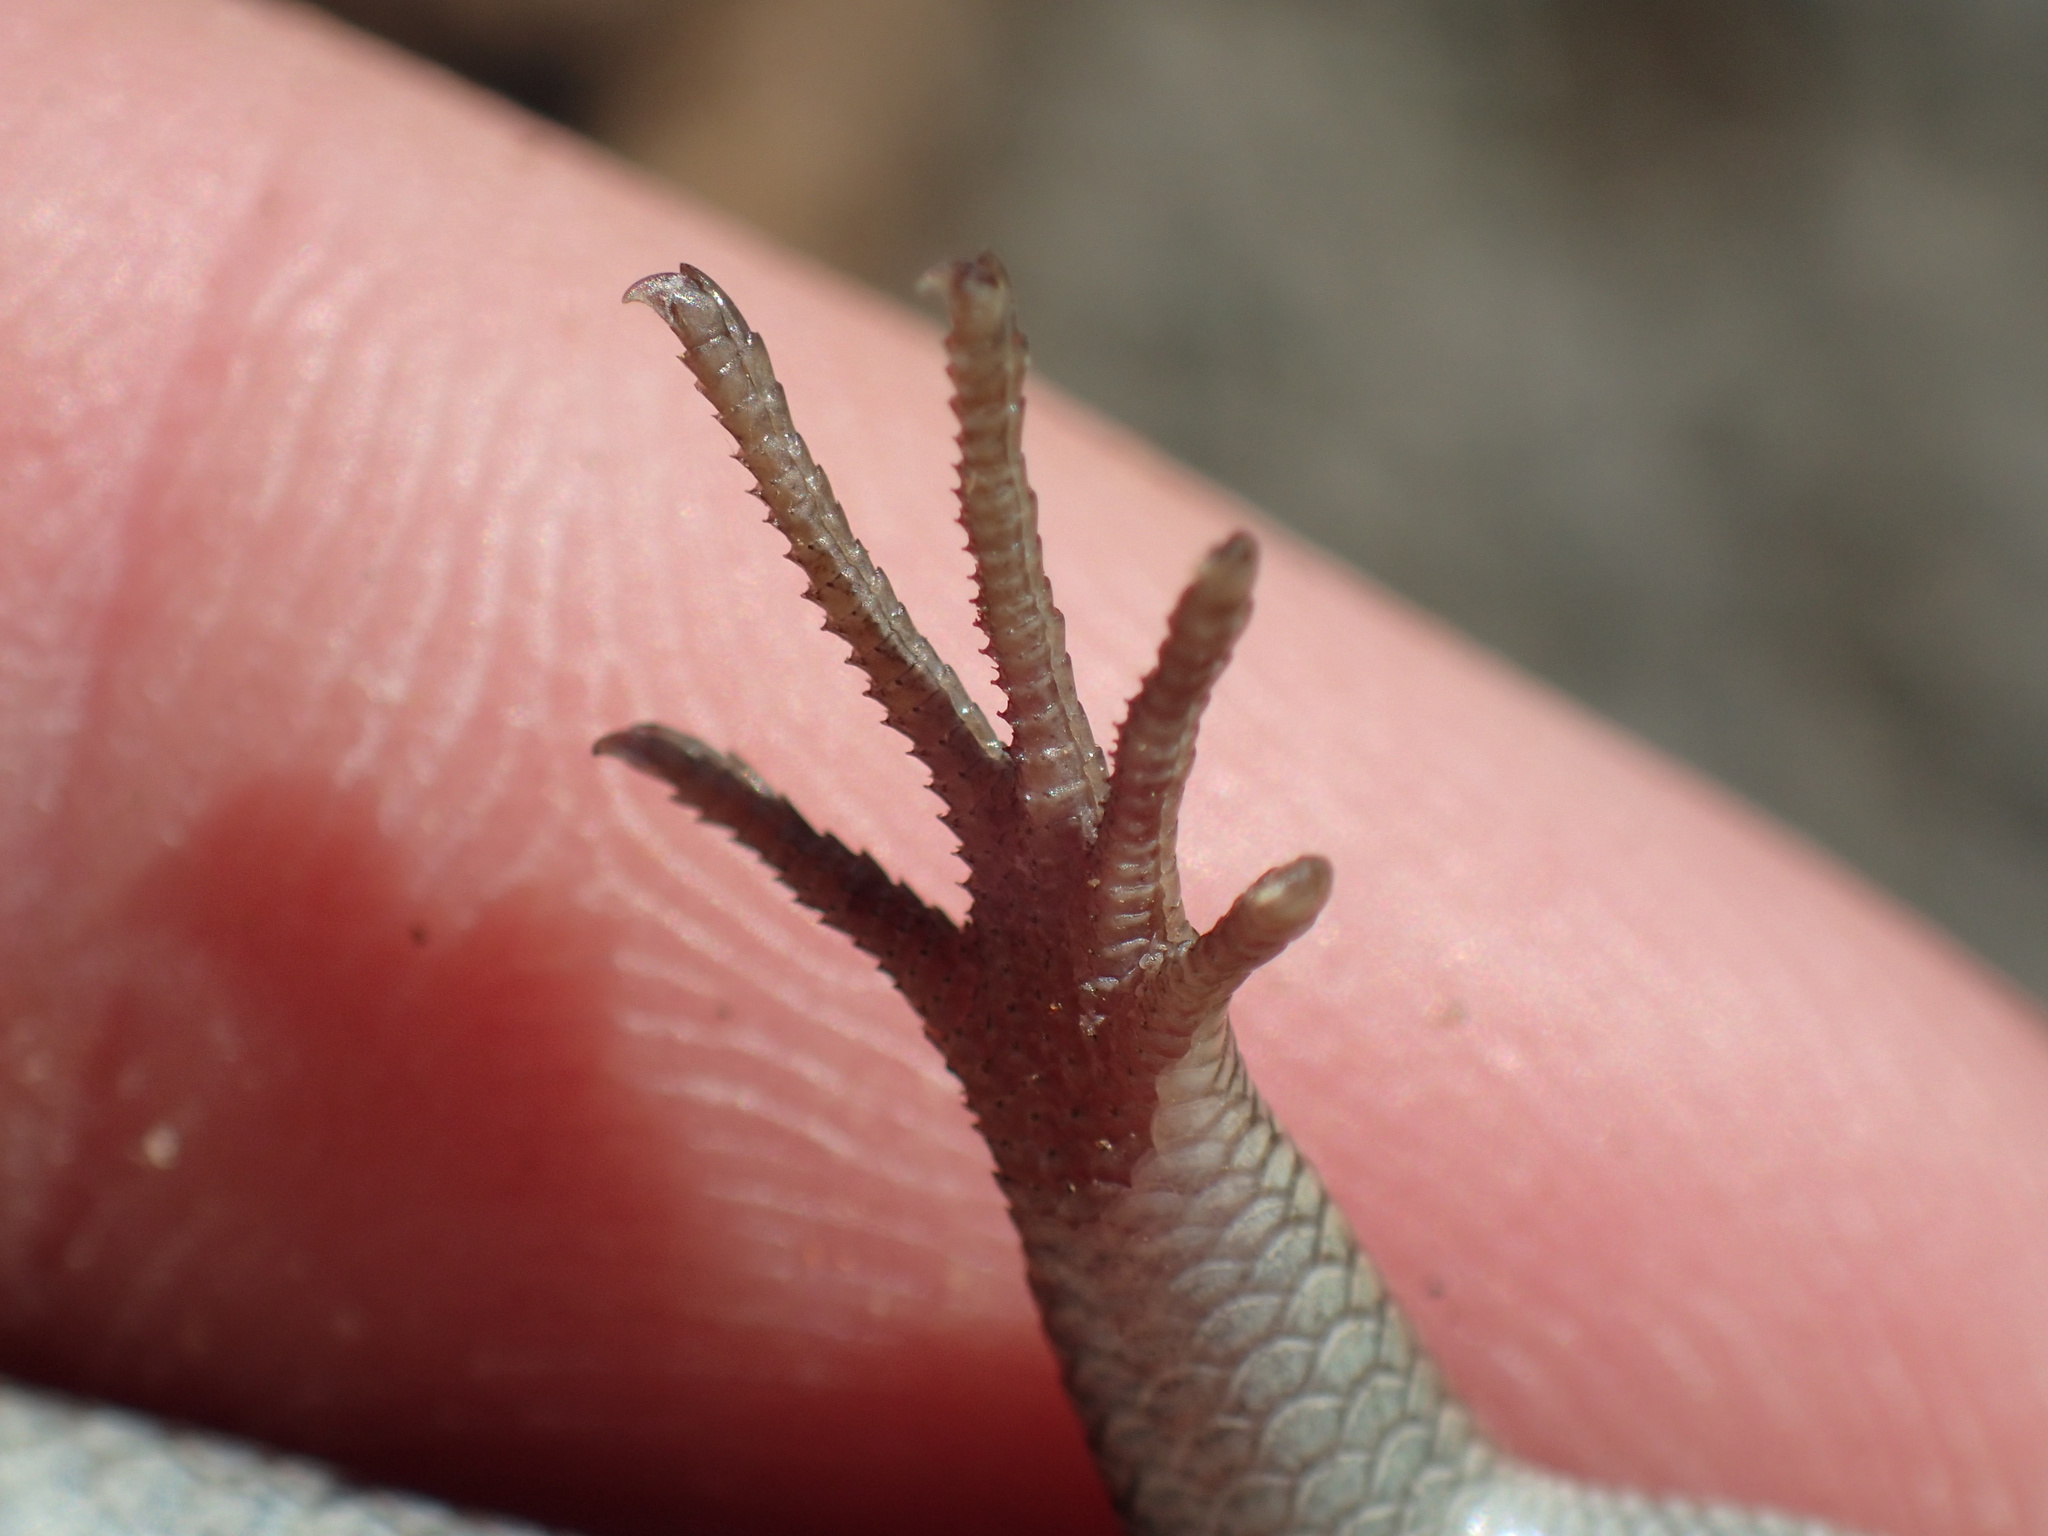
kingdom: Animalia
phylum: Chordata
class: Squamata
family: Scincidae
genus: Trachylepis
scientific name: Trachylepis sulcata
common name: Western rock skink
